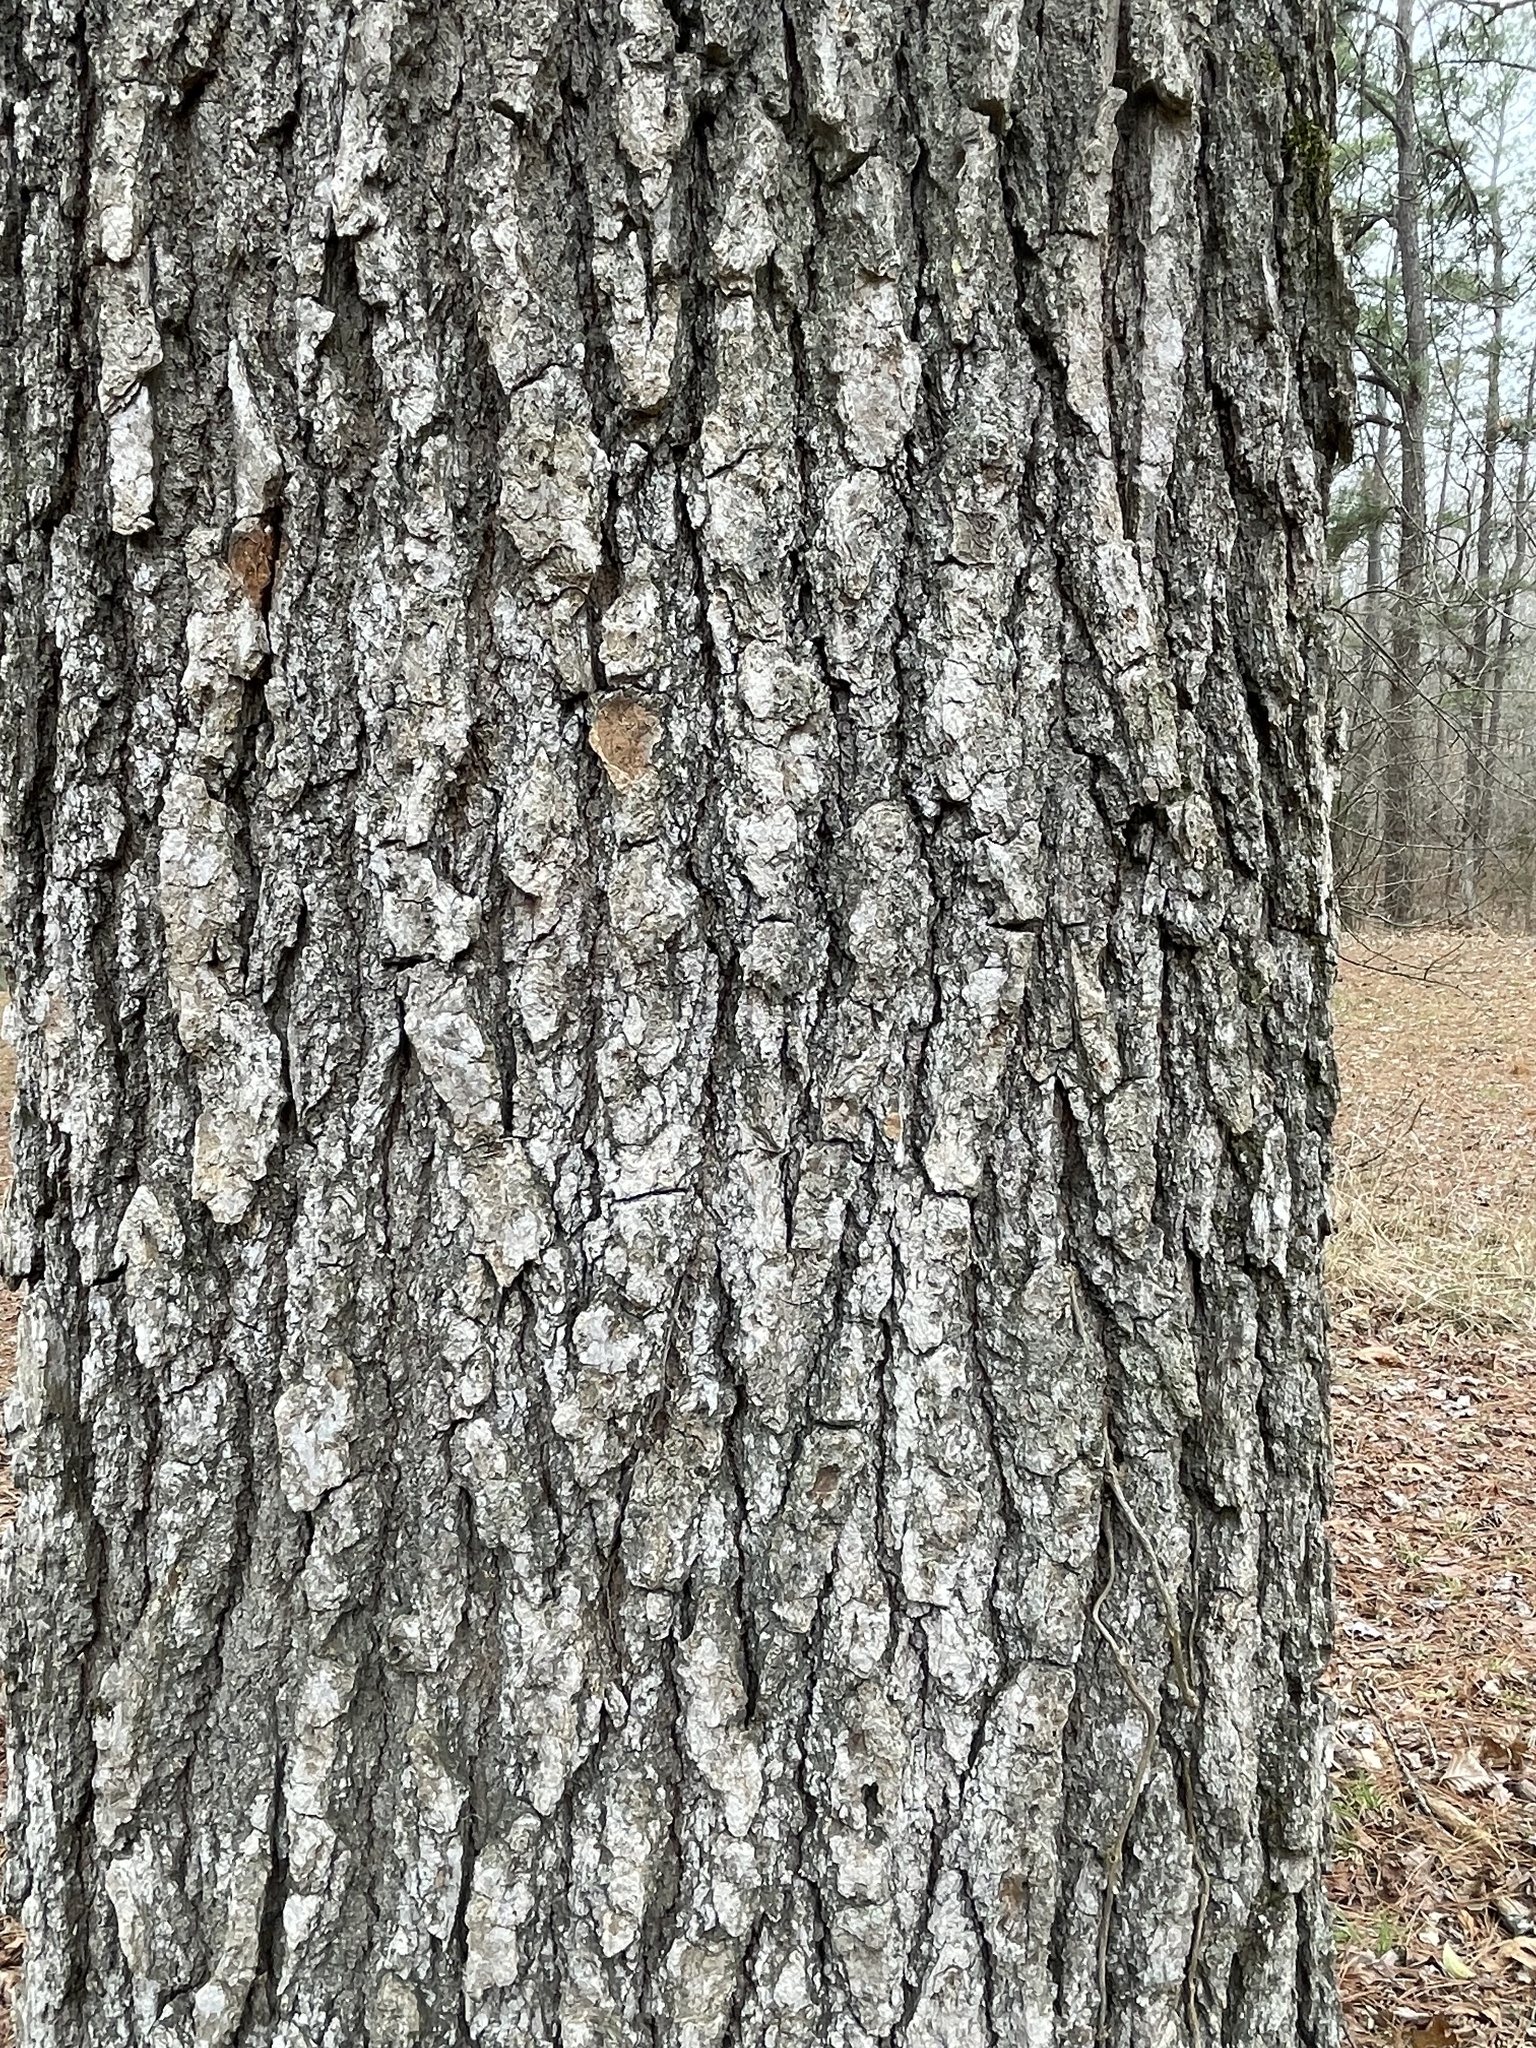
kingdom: Plantae
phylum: Tracheophyta
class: Magnoliopsida
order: Rosales
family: Ulmaceae
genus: Ulmus
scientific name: Ulmus alata
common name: Winged elm
